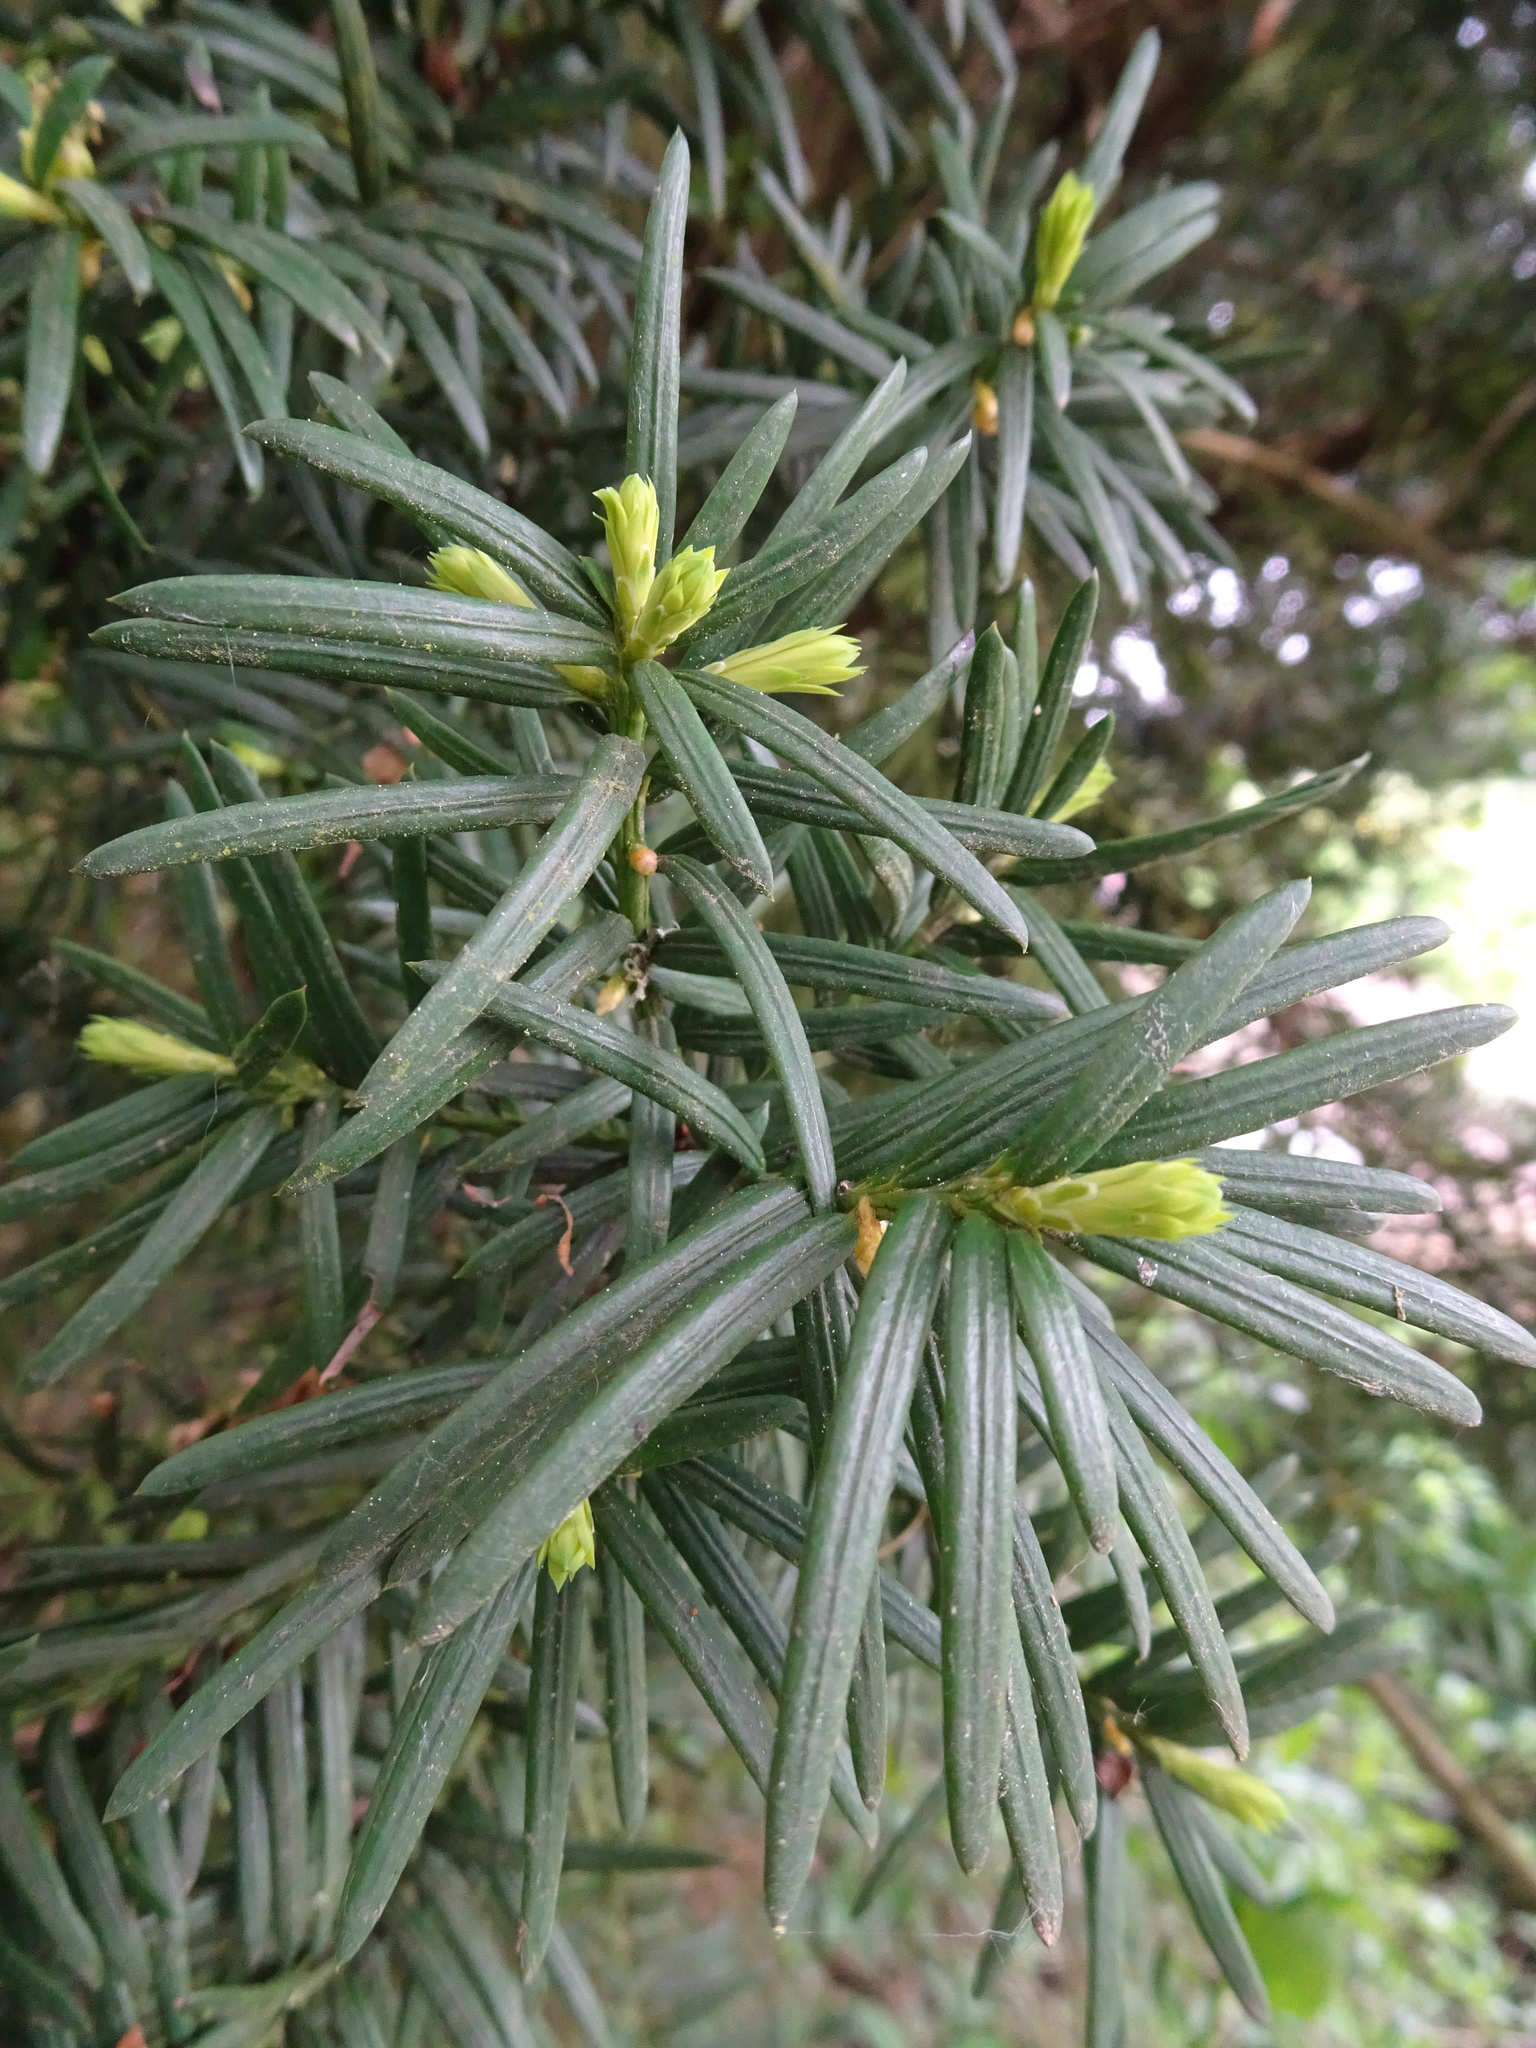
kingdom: Plantae
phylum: Tracheophyta
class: Pinopsida
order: Pinales
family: Taxaceae
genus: Taxus
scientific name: Taxus baccata
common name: Yew
